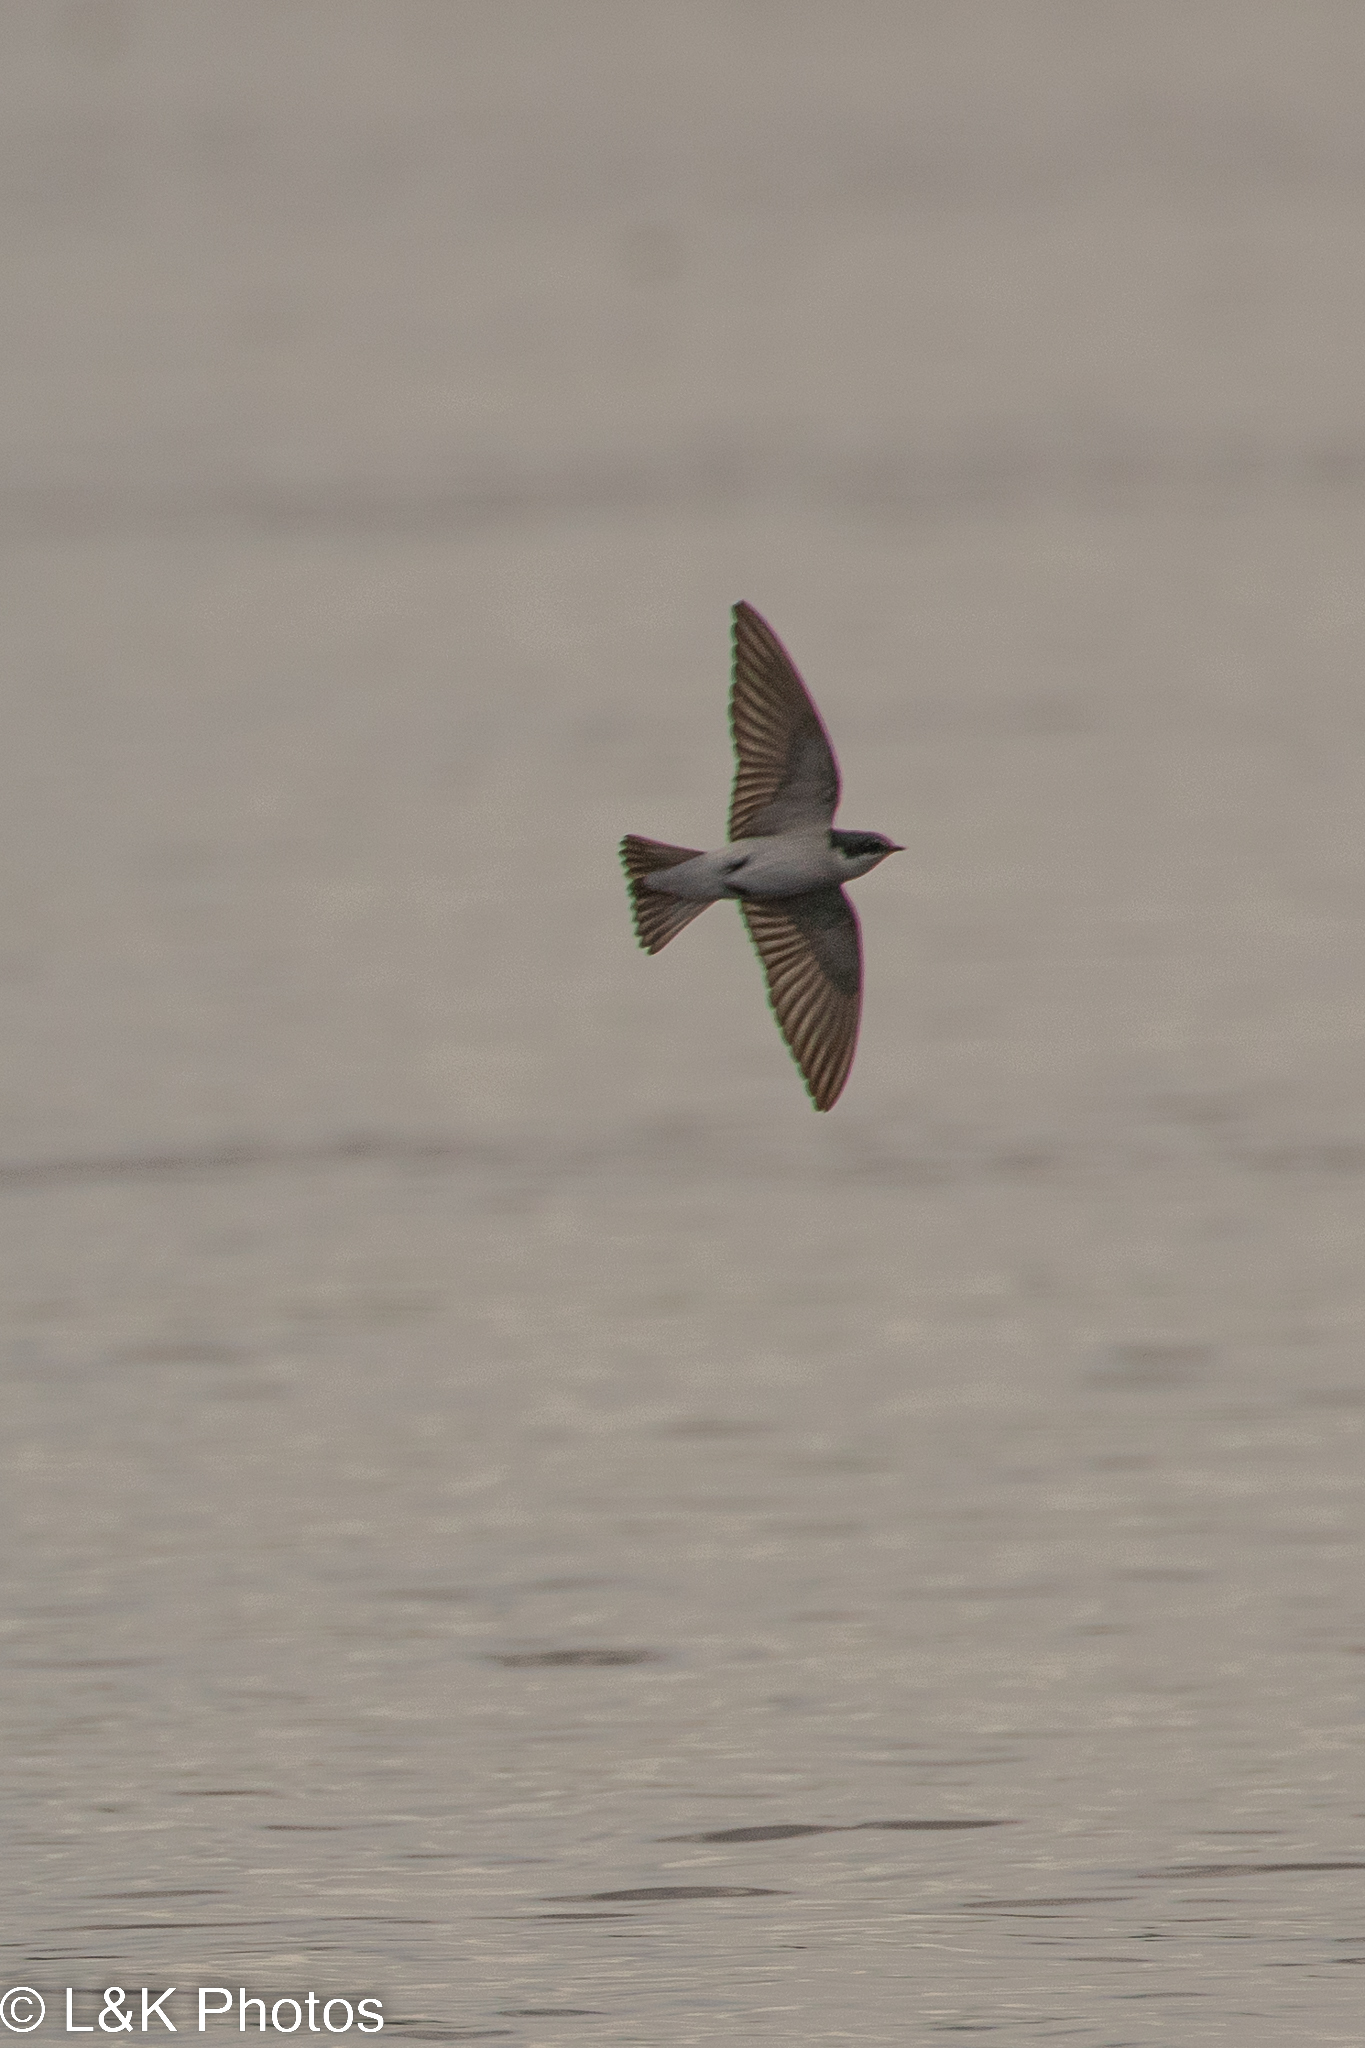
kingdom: Animalia
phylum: Chordata
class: Aves
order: Passeriformes
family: Hirundinidae
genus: Tachycineta
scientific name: Tachycineta albilinea
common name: Mangrove swallow
